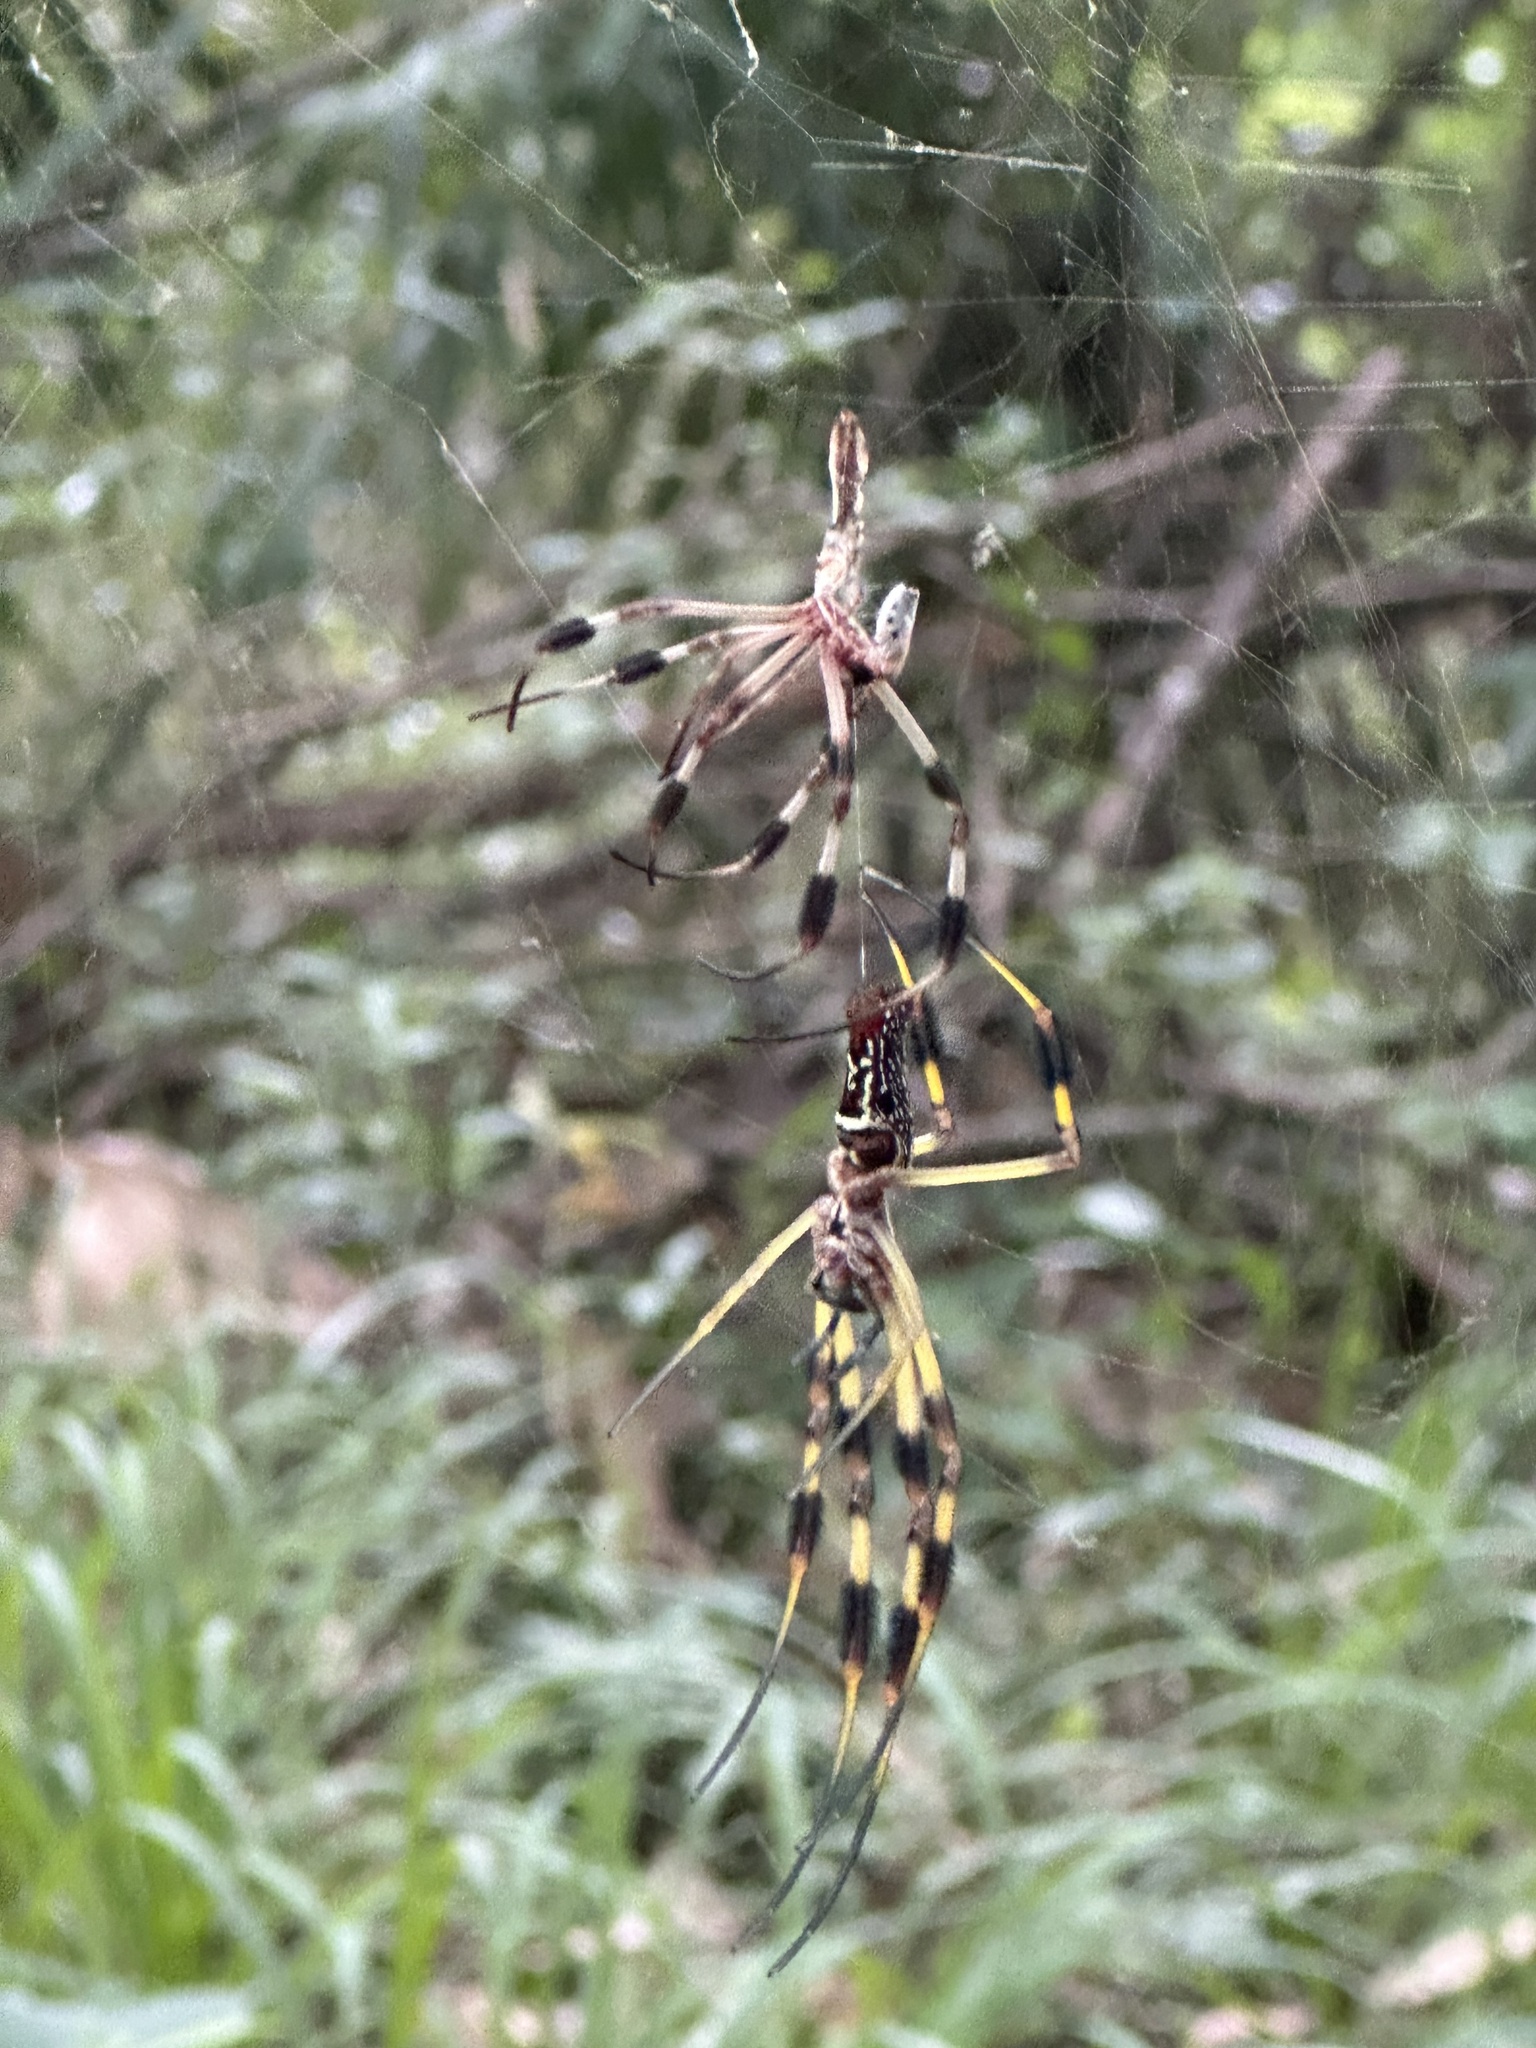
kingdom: Animalia
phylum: Arthropoda
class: Arachnida
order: Araneae
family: Araneidae
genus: Trichonephila
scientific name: Trichonephila clavipes
